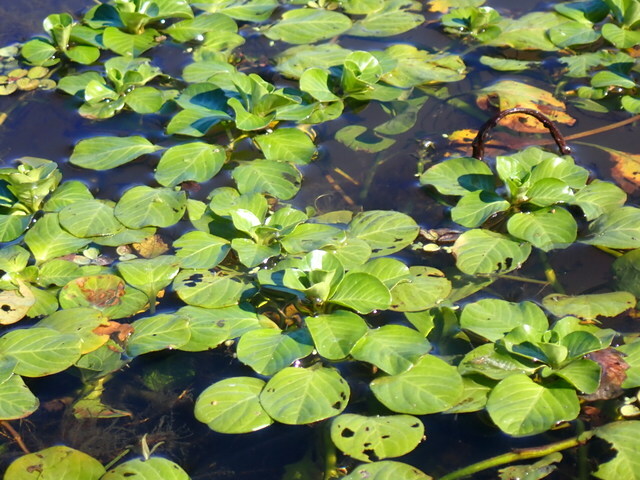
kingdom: Plantae
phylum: Tracheophyta
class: Magnoliopsida
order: Myrtales
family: Onagraceae
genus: Ludwigia
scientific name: Ludwigia peploides
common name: Floating primrose-willow
